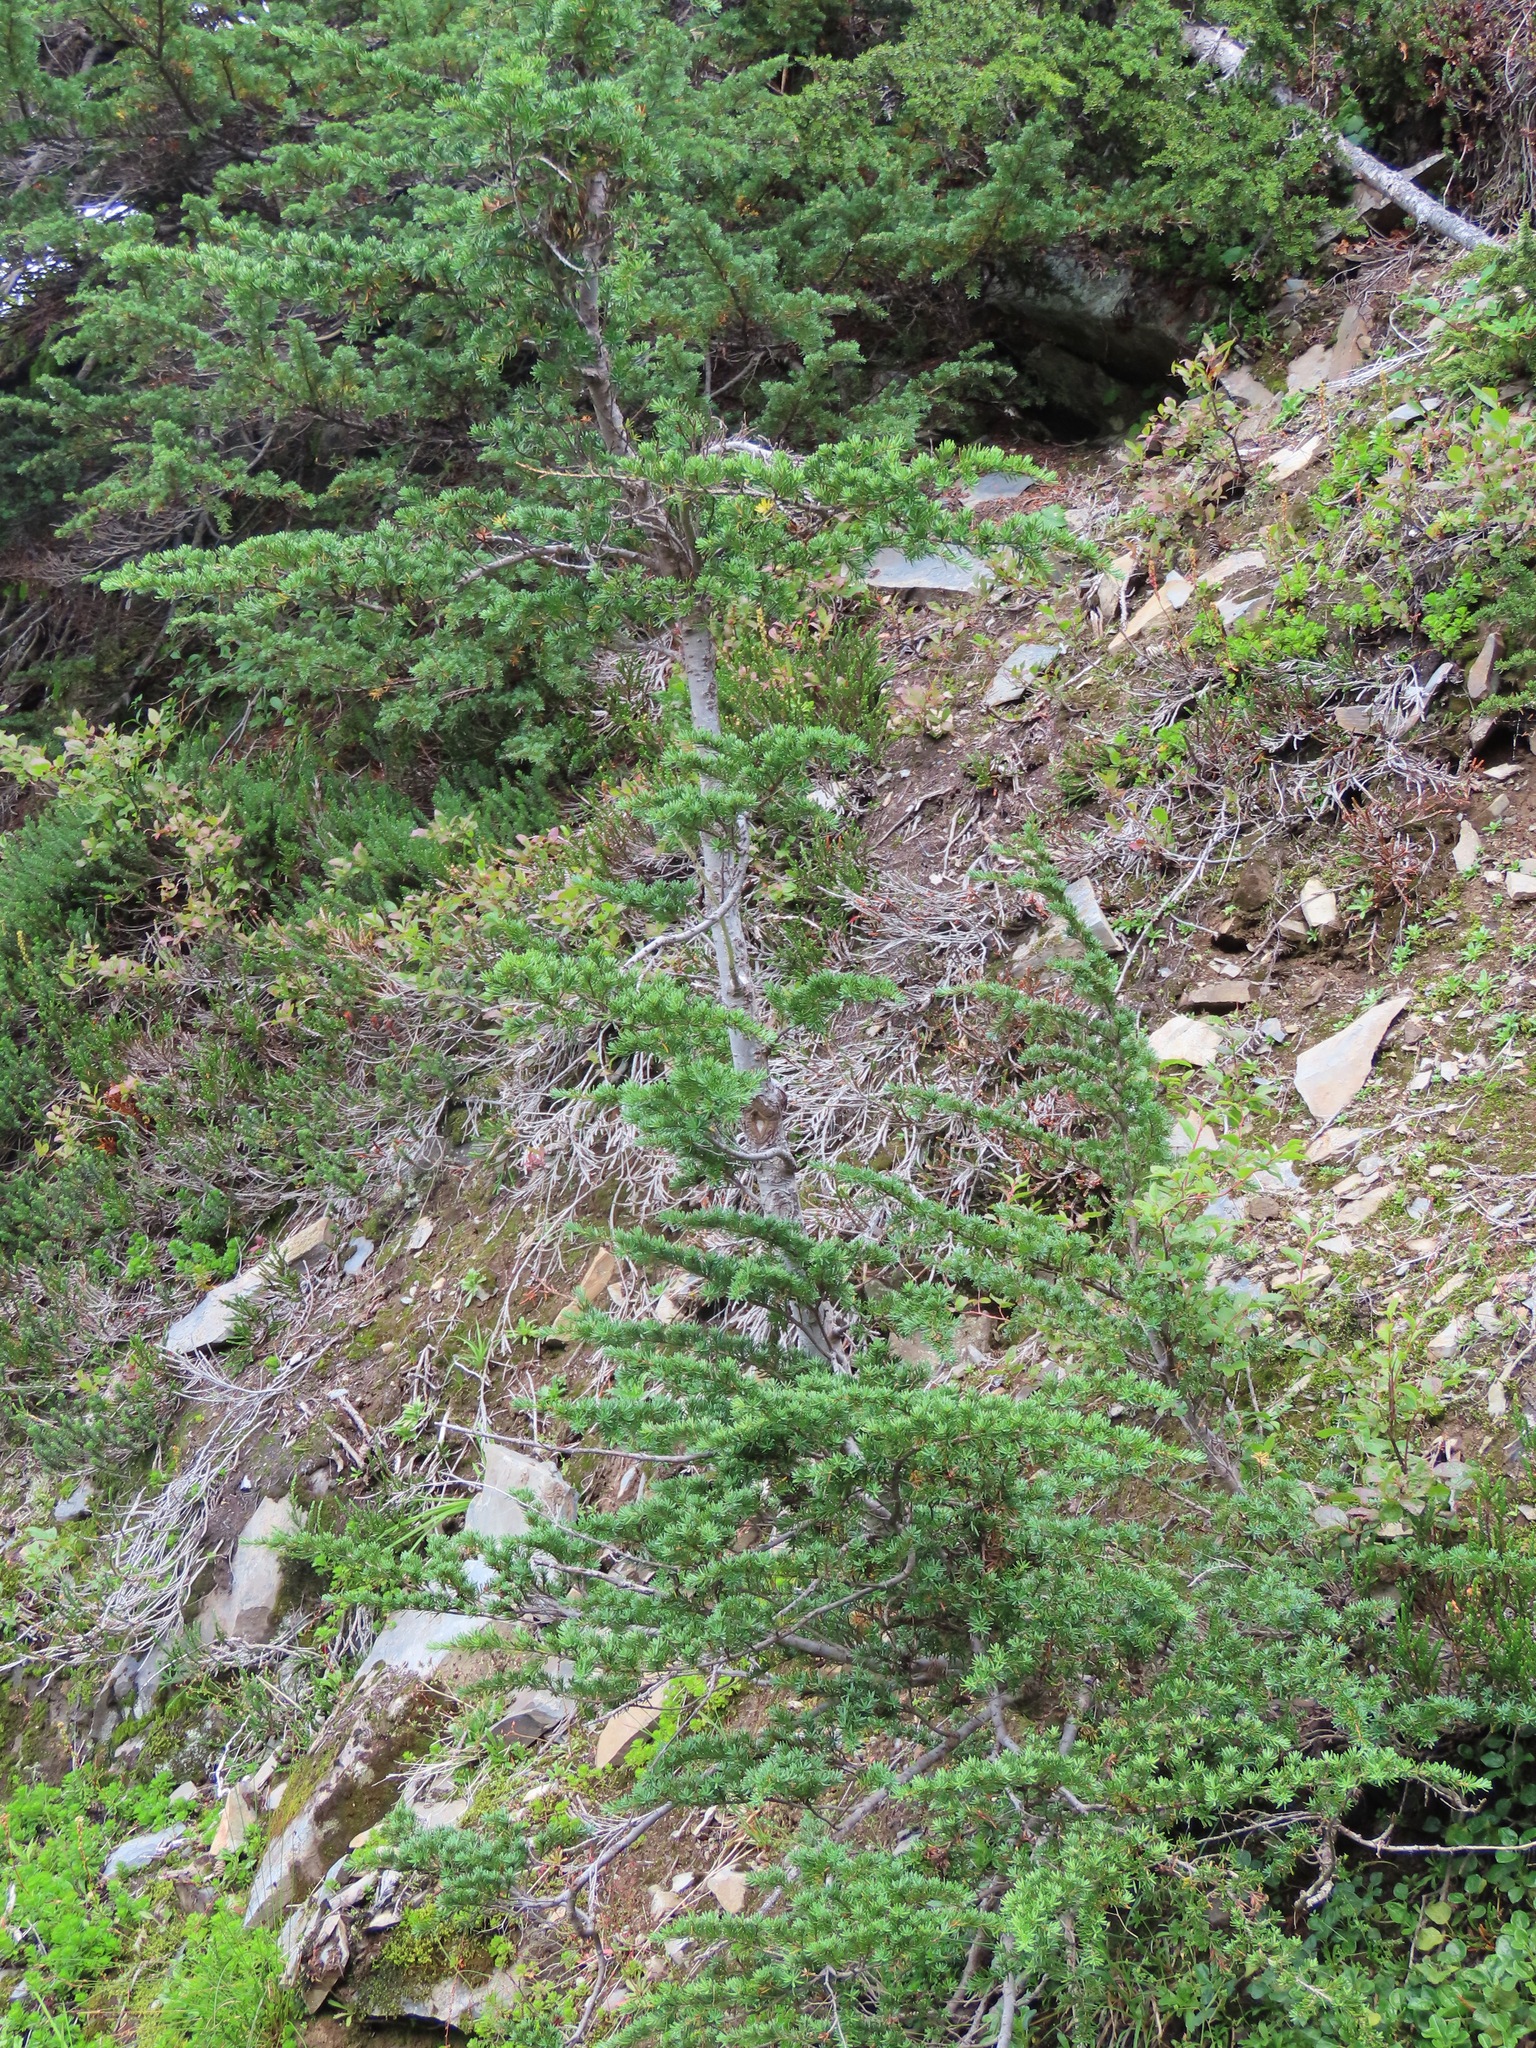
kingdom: Plantae
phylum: Tracheophyta
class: Pinopsida
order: Pinales
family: Pinaceae
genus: Tsuga
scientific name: Tsuga mertensiana
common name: Mountain hemlock
